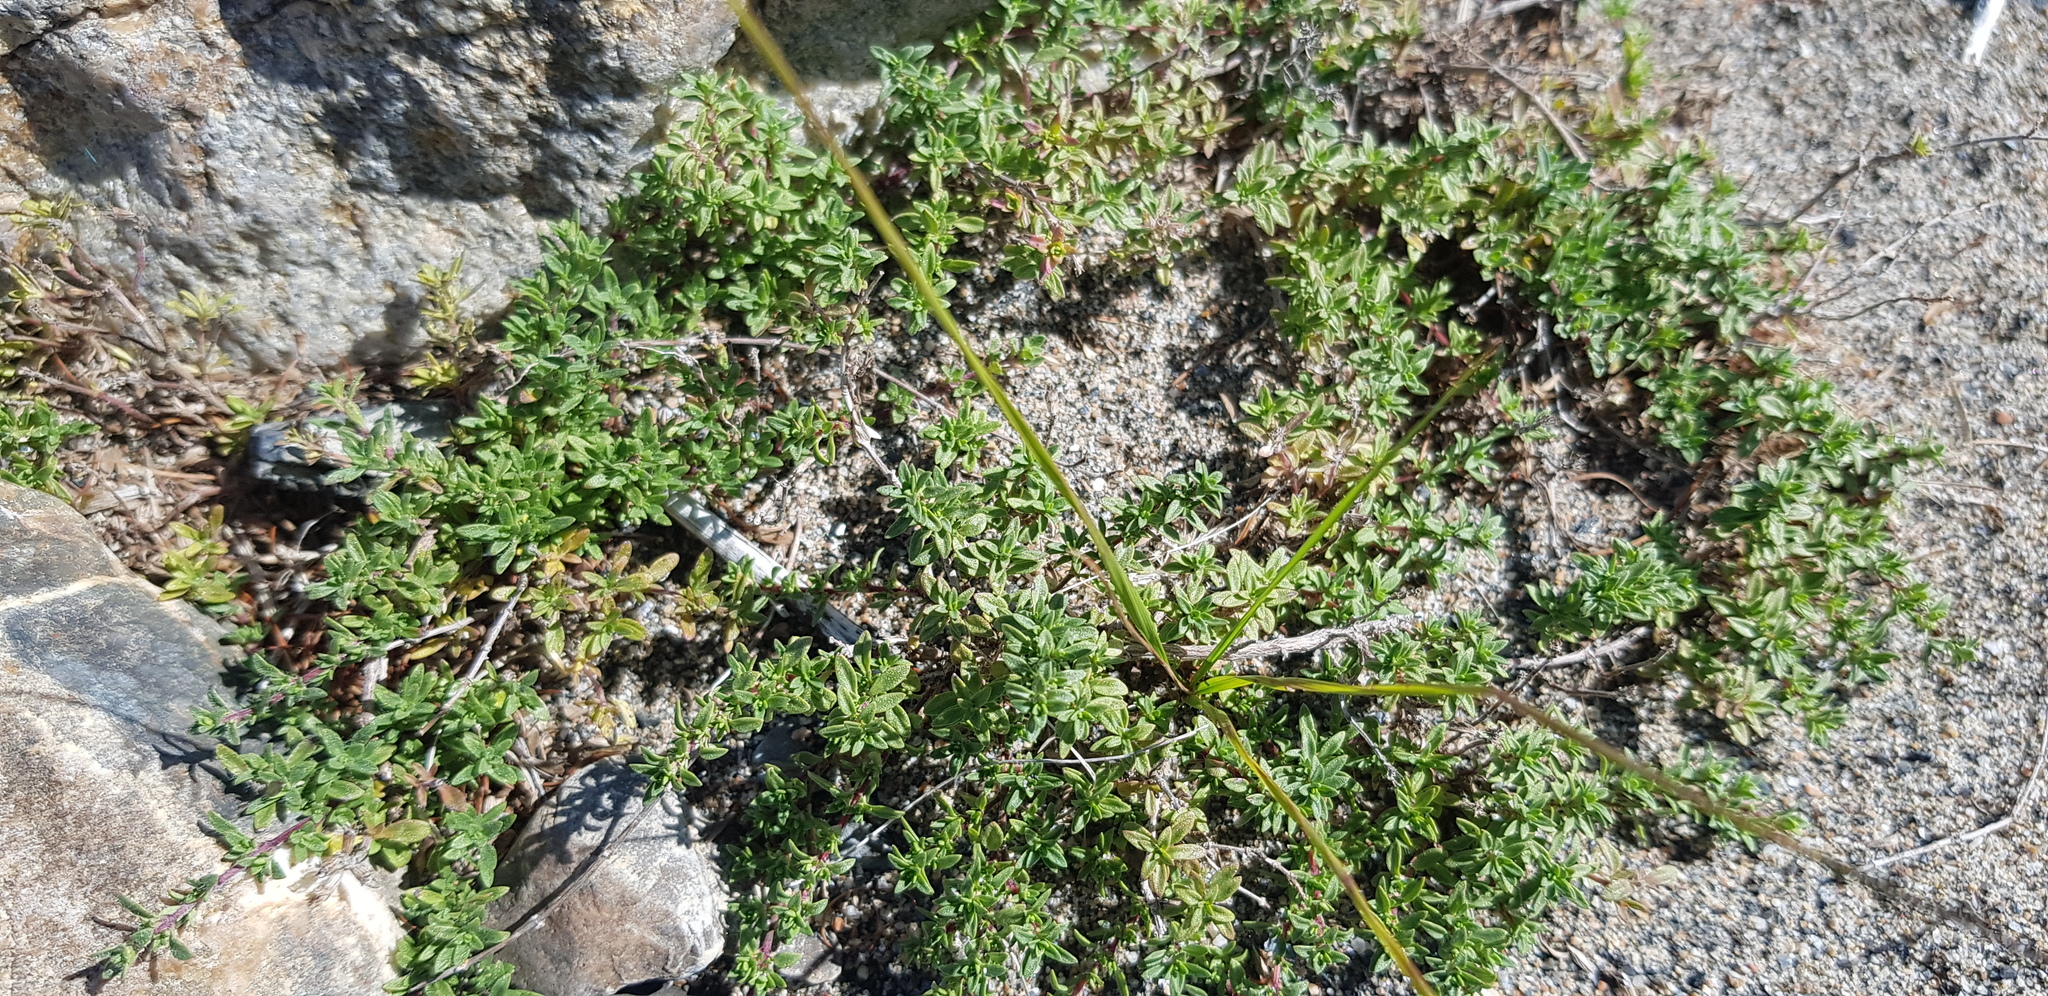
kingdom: Plantae
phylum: Tracheophyta
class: Magnoliopsida
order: Lamiales
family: Lamiaceae
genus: Thymus
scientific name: Thymus baicalensis
